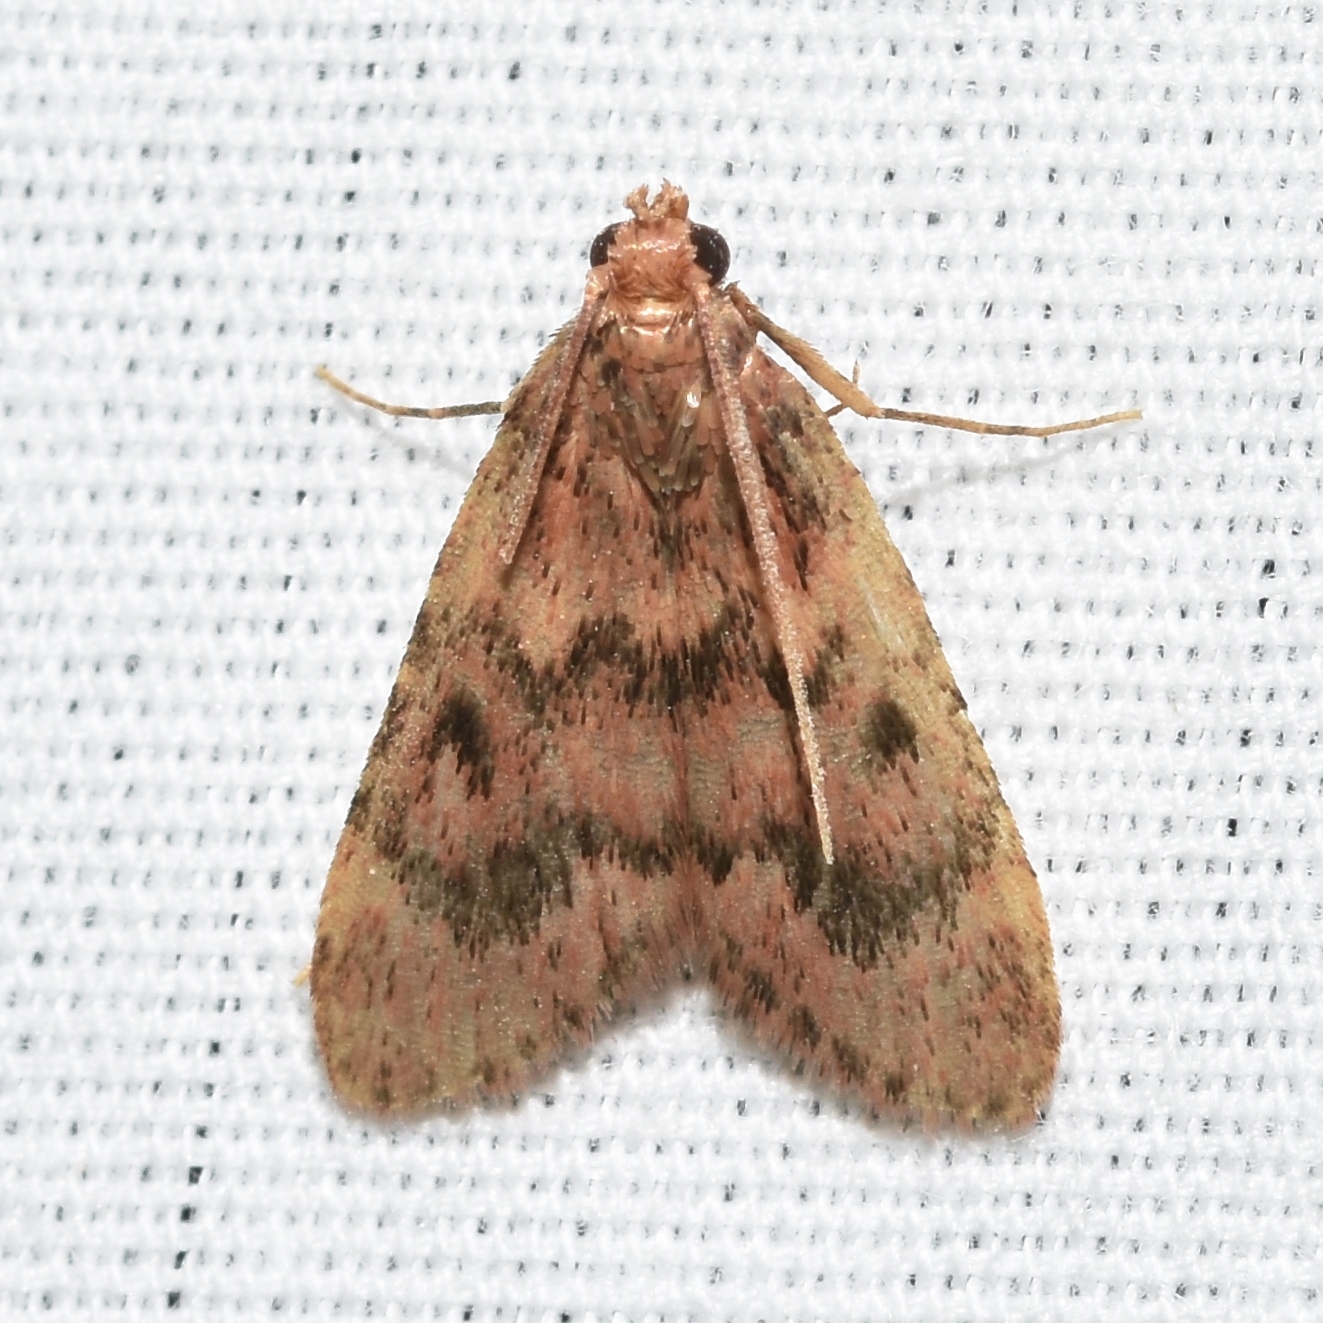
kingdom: Animalia
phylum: Arthropoda
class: Insecta
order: Lepidoptera
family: Pyralidae
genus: Aglossa
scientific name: Aglossa disciferalis
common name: Pink-masked pyralid moth
